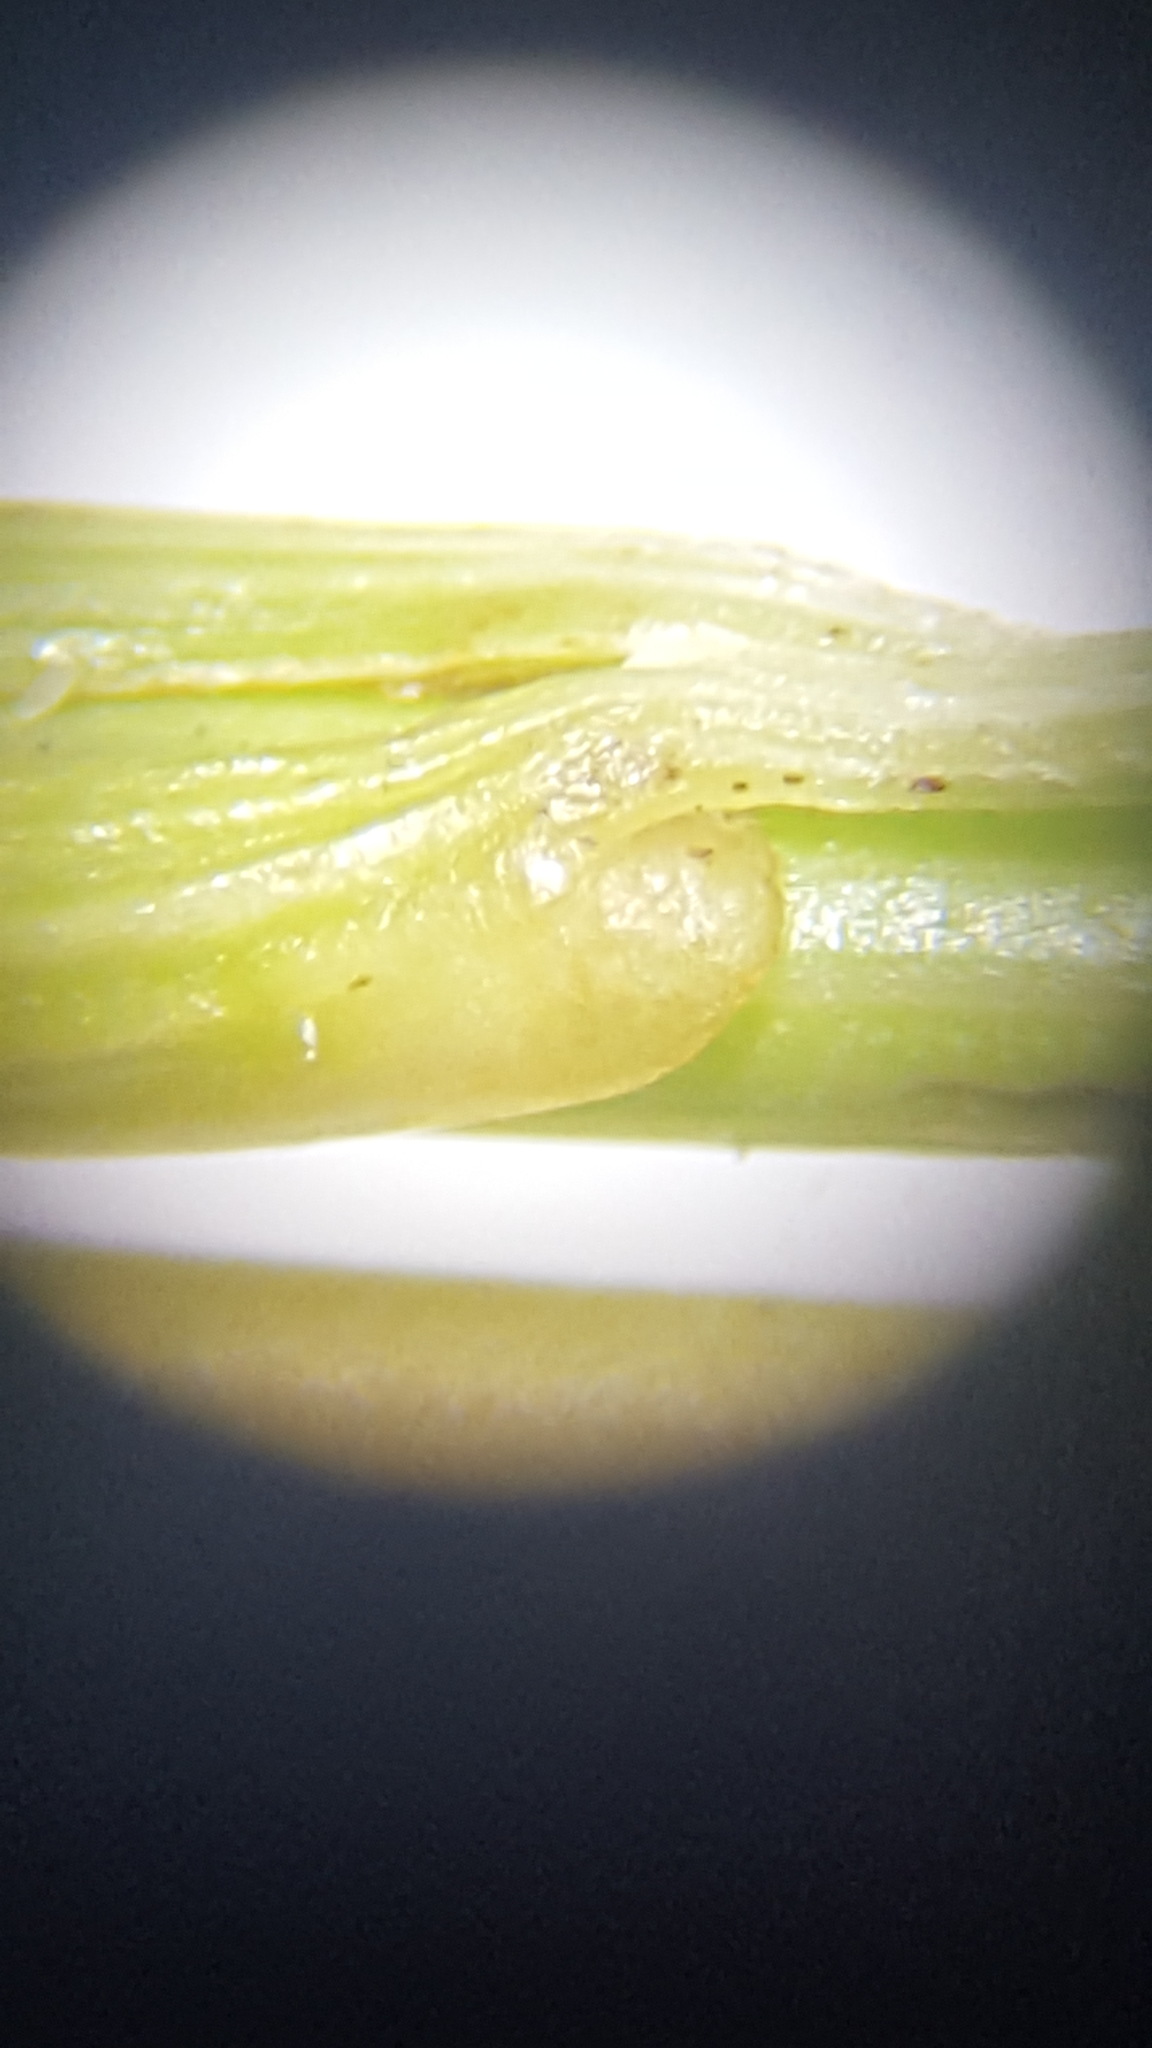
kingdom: Plantae
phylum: Tracheophyta
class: Liliopsida
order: Poales
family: Juncaceae
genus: Juncus
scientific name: Juncus dudleyi
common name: Dudley's rush
